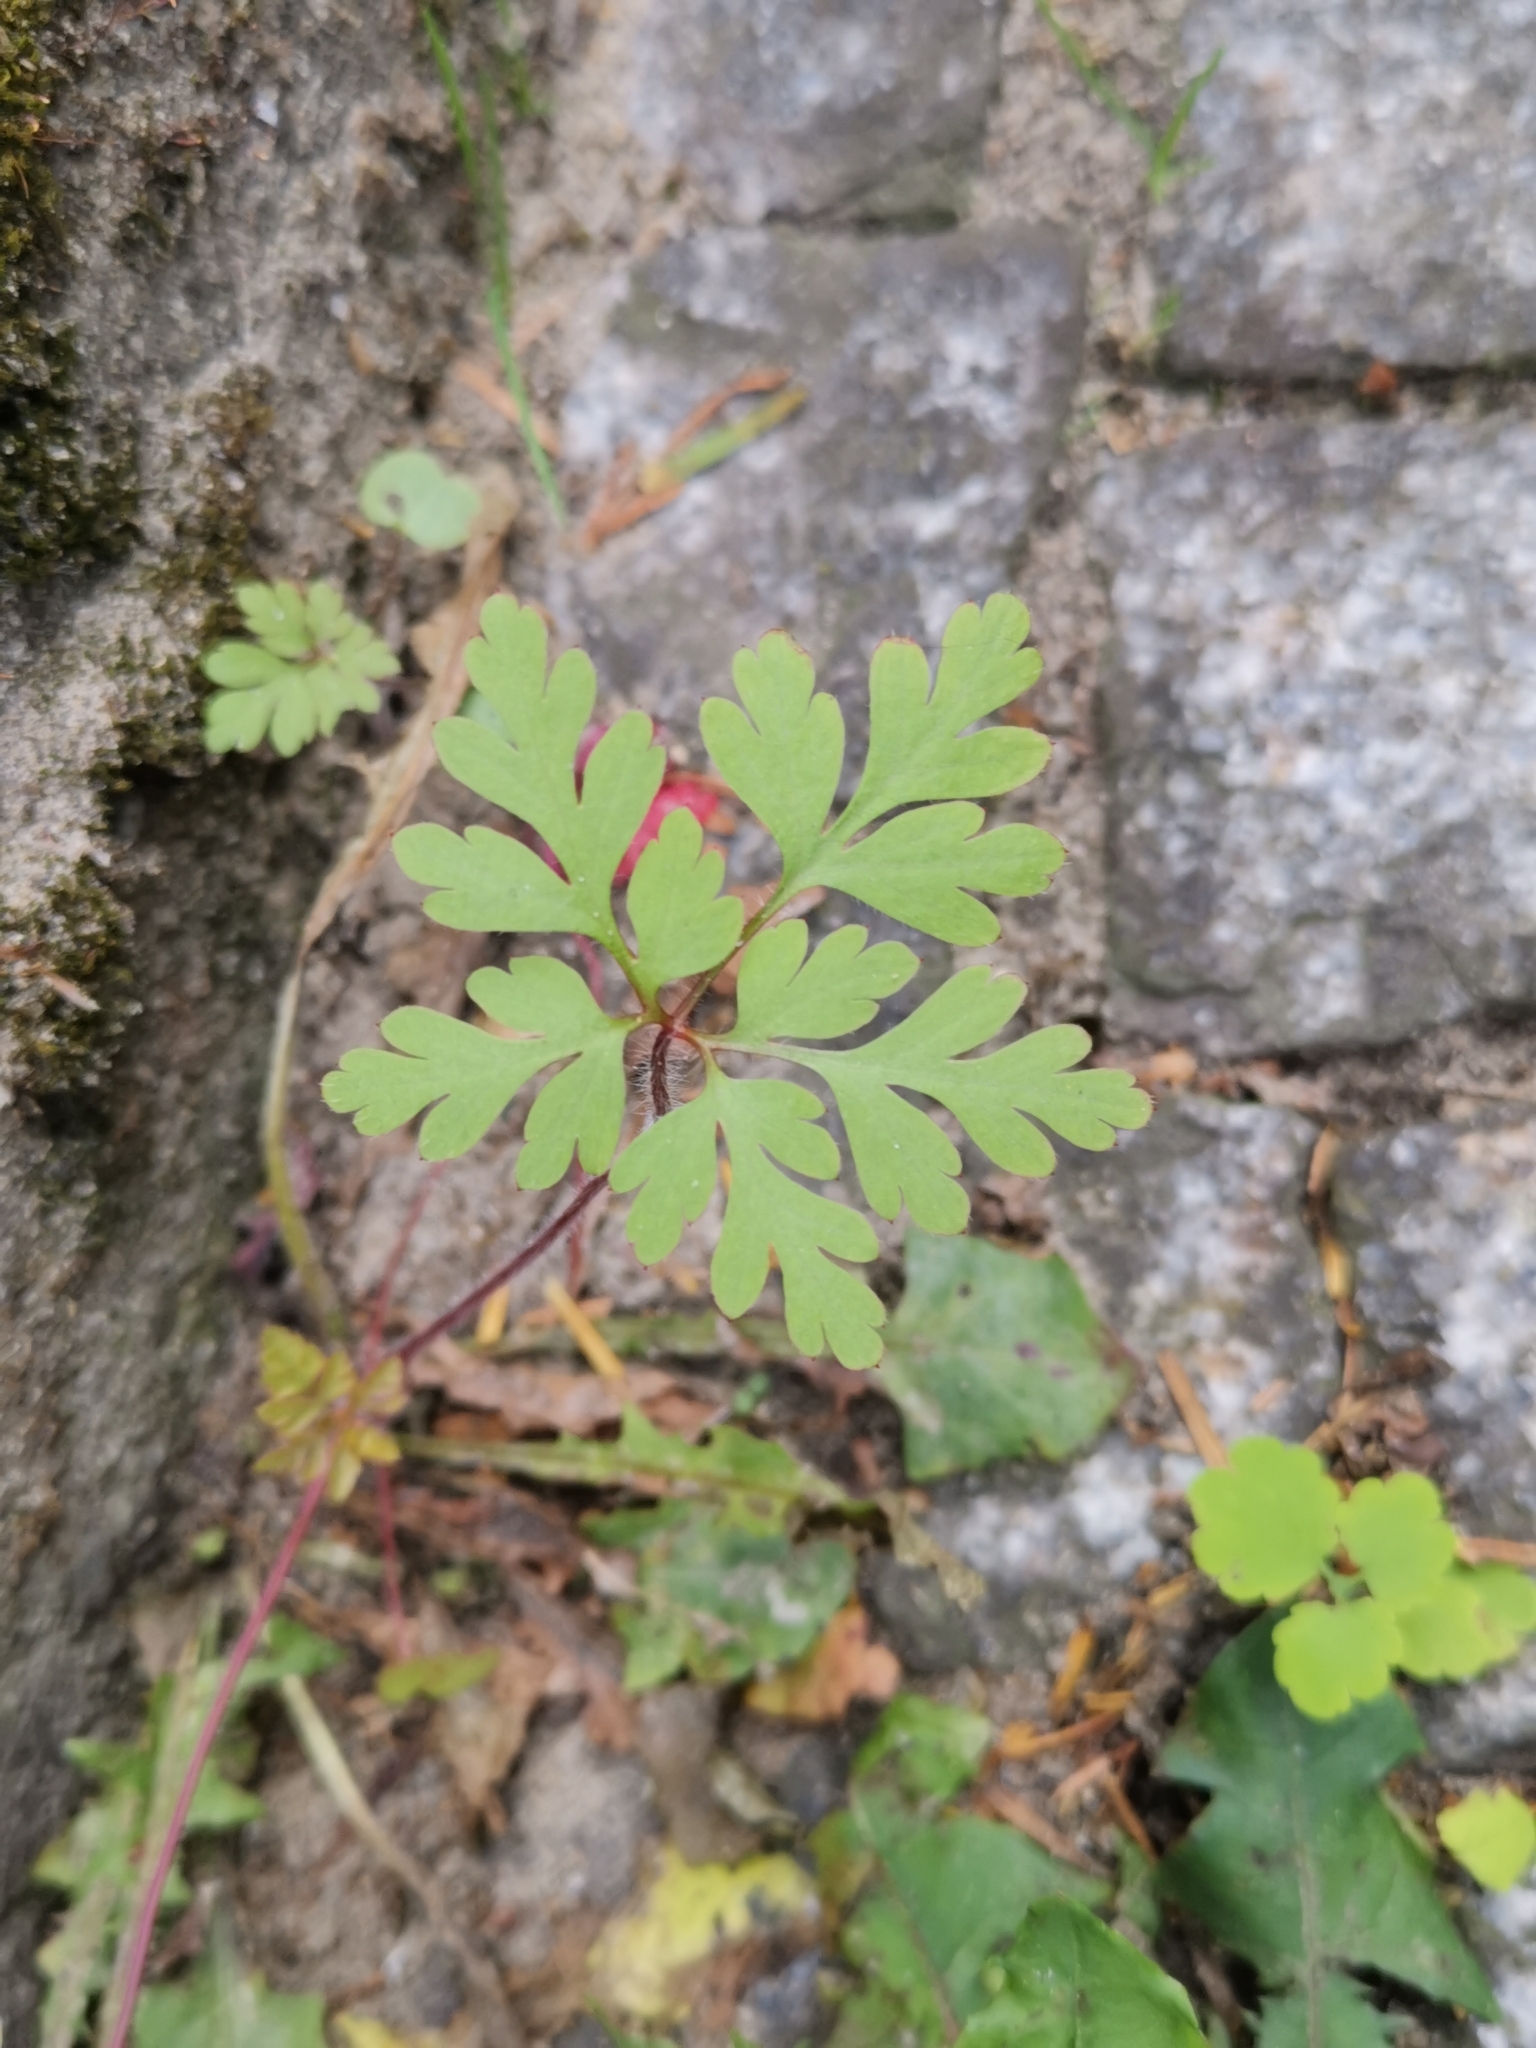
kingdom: Plantae
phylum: Tracheophyta
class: Magnoliopsida
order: Geraniales
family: Geraniaceae
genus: Geranium
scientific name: Geranium robertianum
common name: Herb-robert
